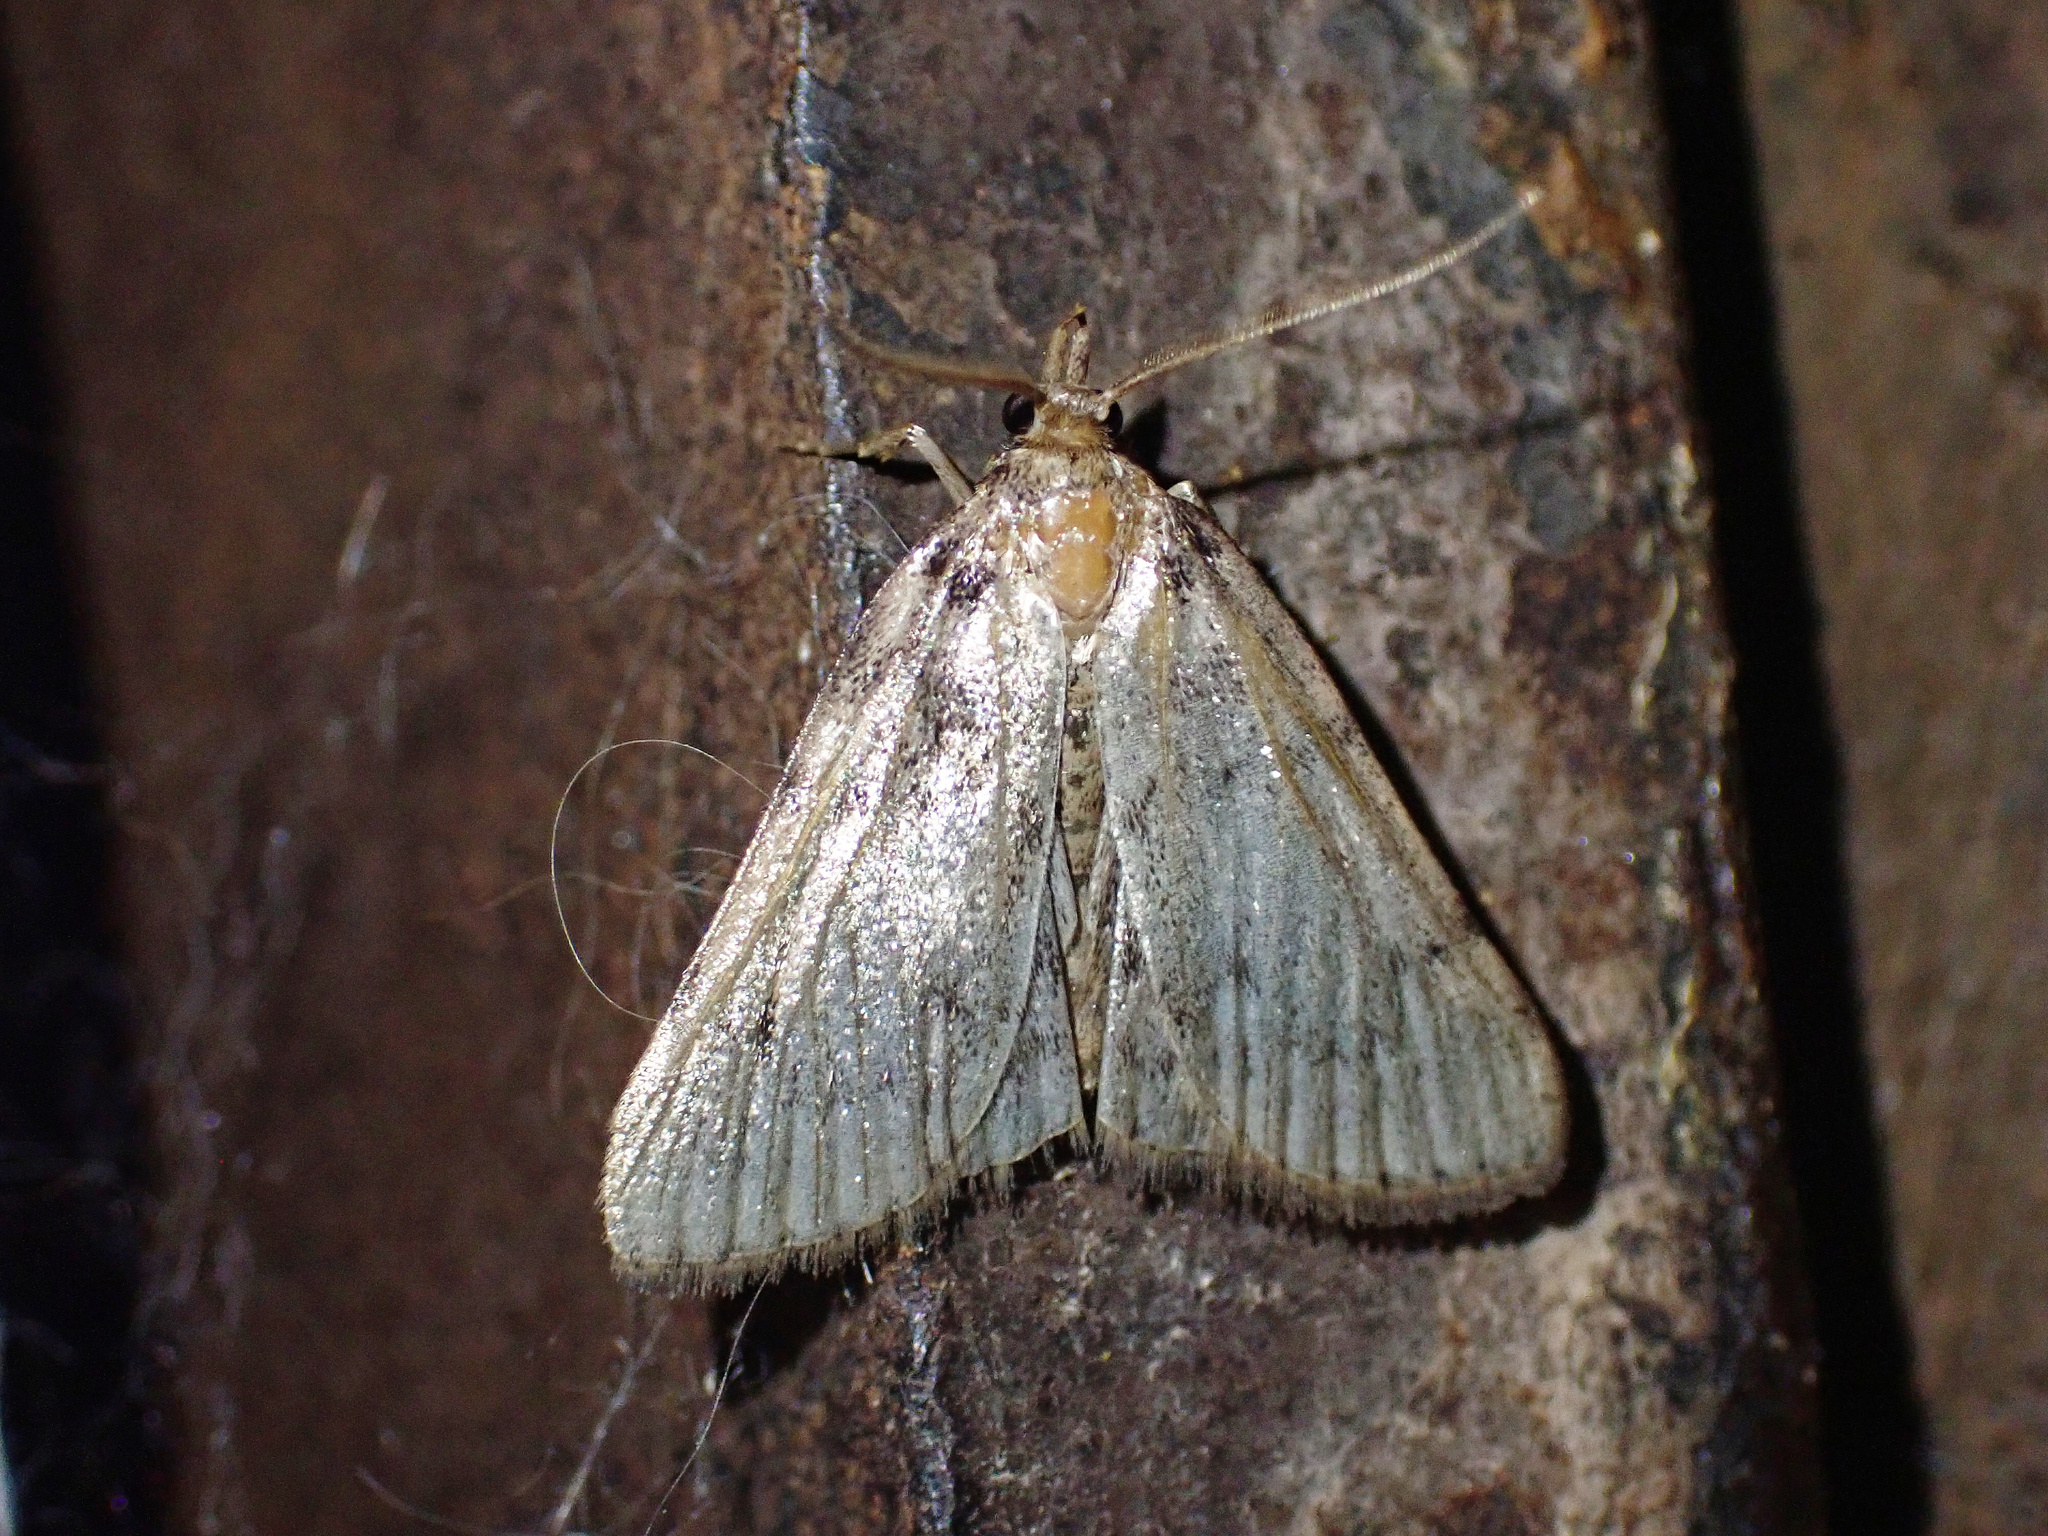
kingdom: Animalia
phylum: Arthropoda
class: Insecta
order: Lepidoptera
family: Pyralidae
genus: Aglossa
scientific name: Aglossa pinguinalis
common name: Large tabby
